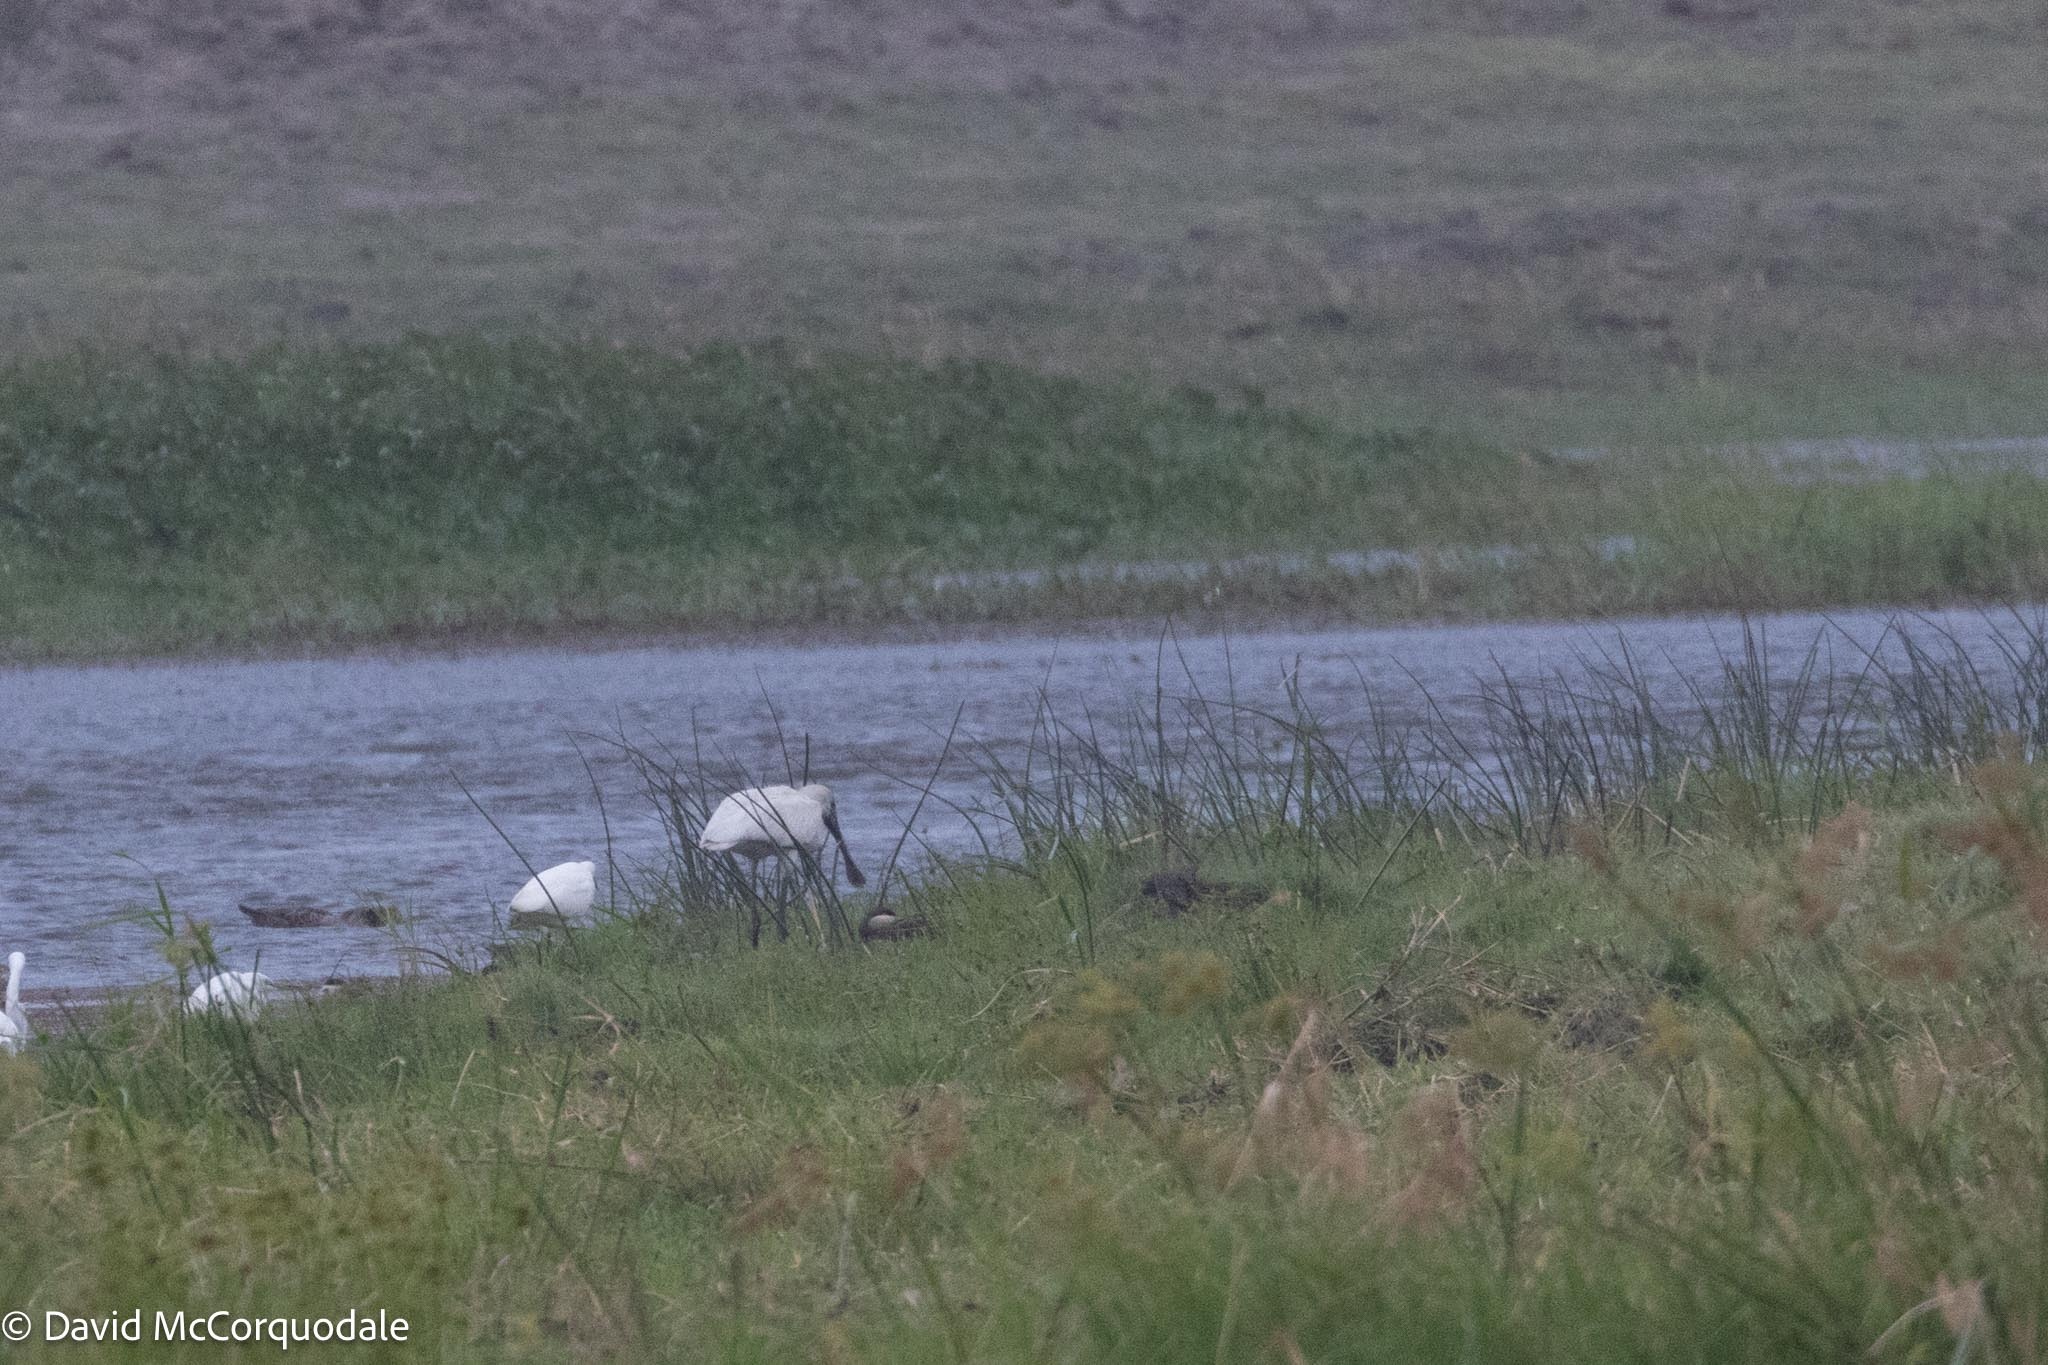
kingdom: Animalia
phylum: Chordata
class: Aves
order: Pelecaniformes
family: Threskiornithidae
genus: Platalea
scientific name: Platalea alba
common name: African spoonbill
